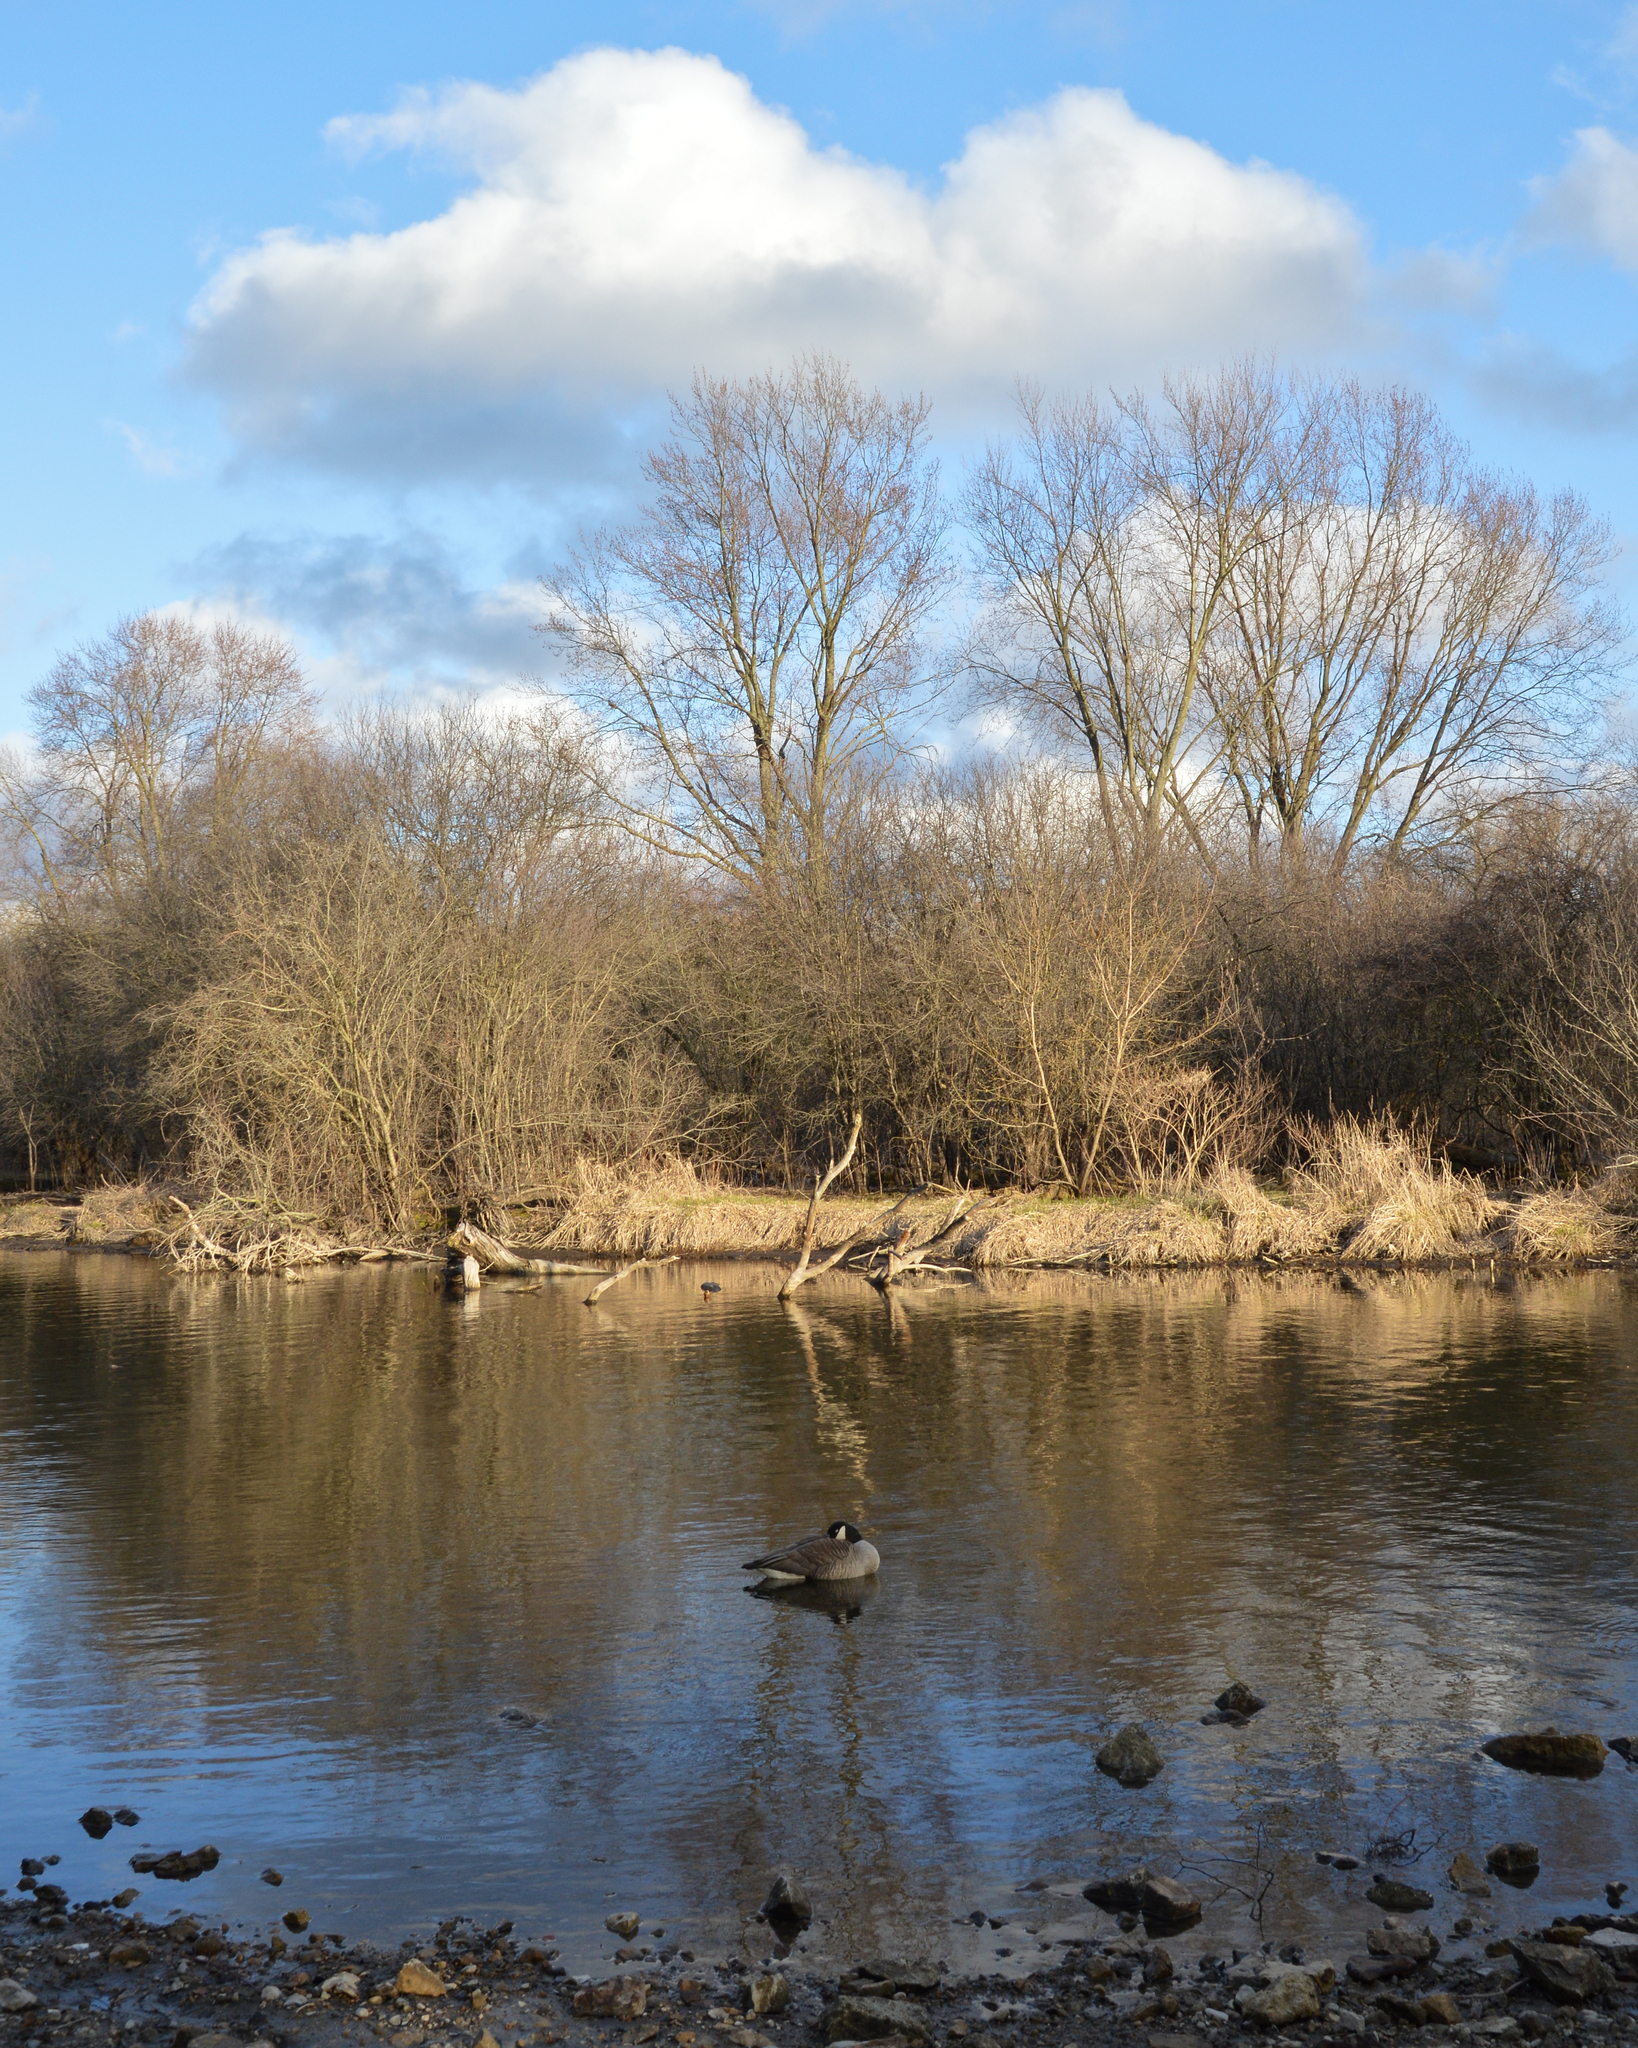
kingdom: Animalia
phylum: Chordata
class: Aves
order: Anseriformes
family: Anatidae
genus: Branta
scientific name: Branta canadensis
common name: Canada goose
